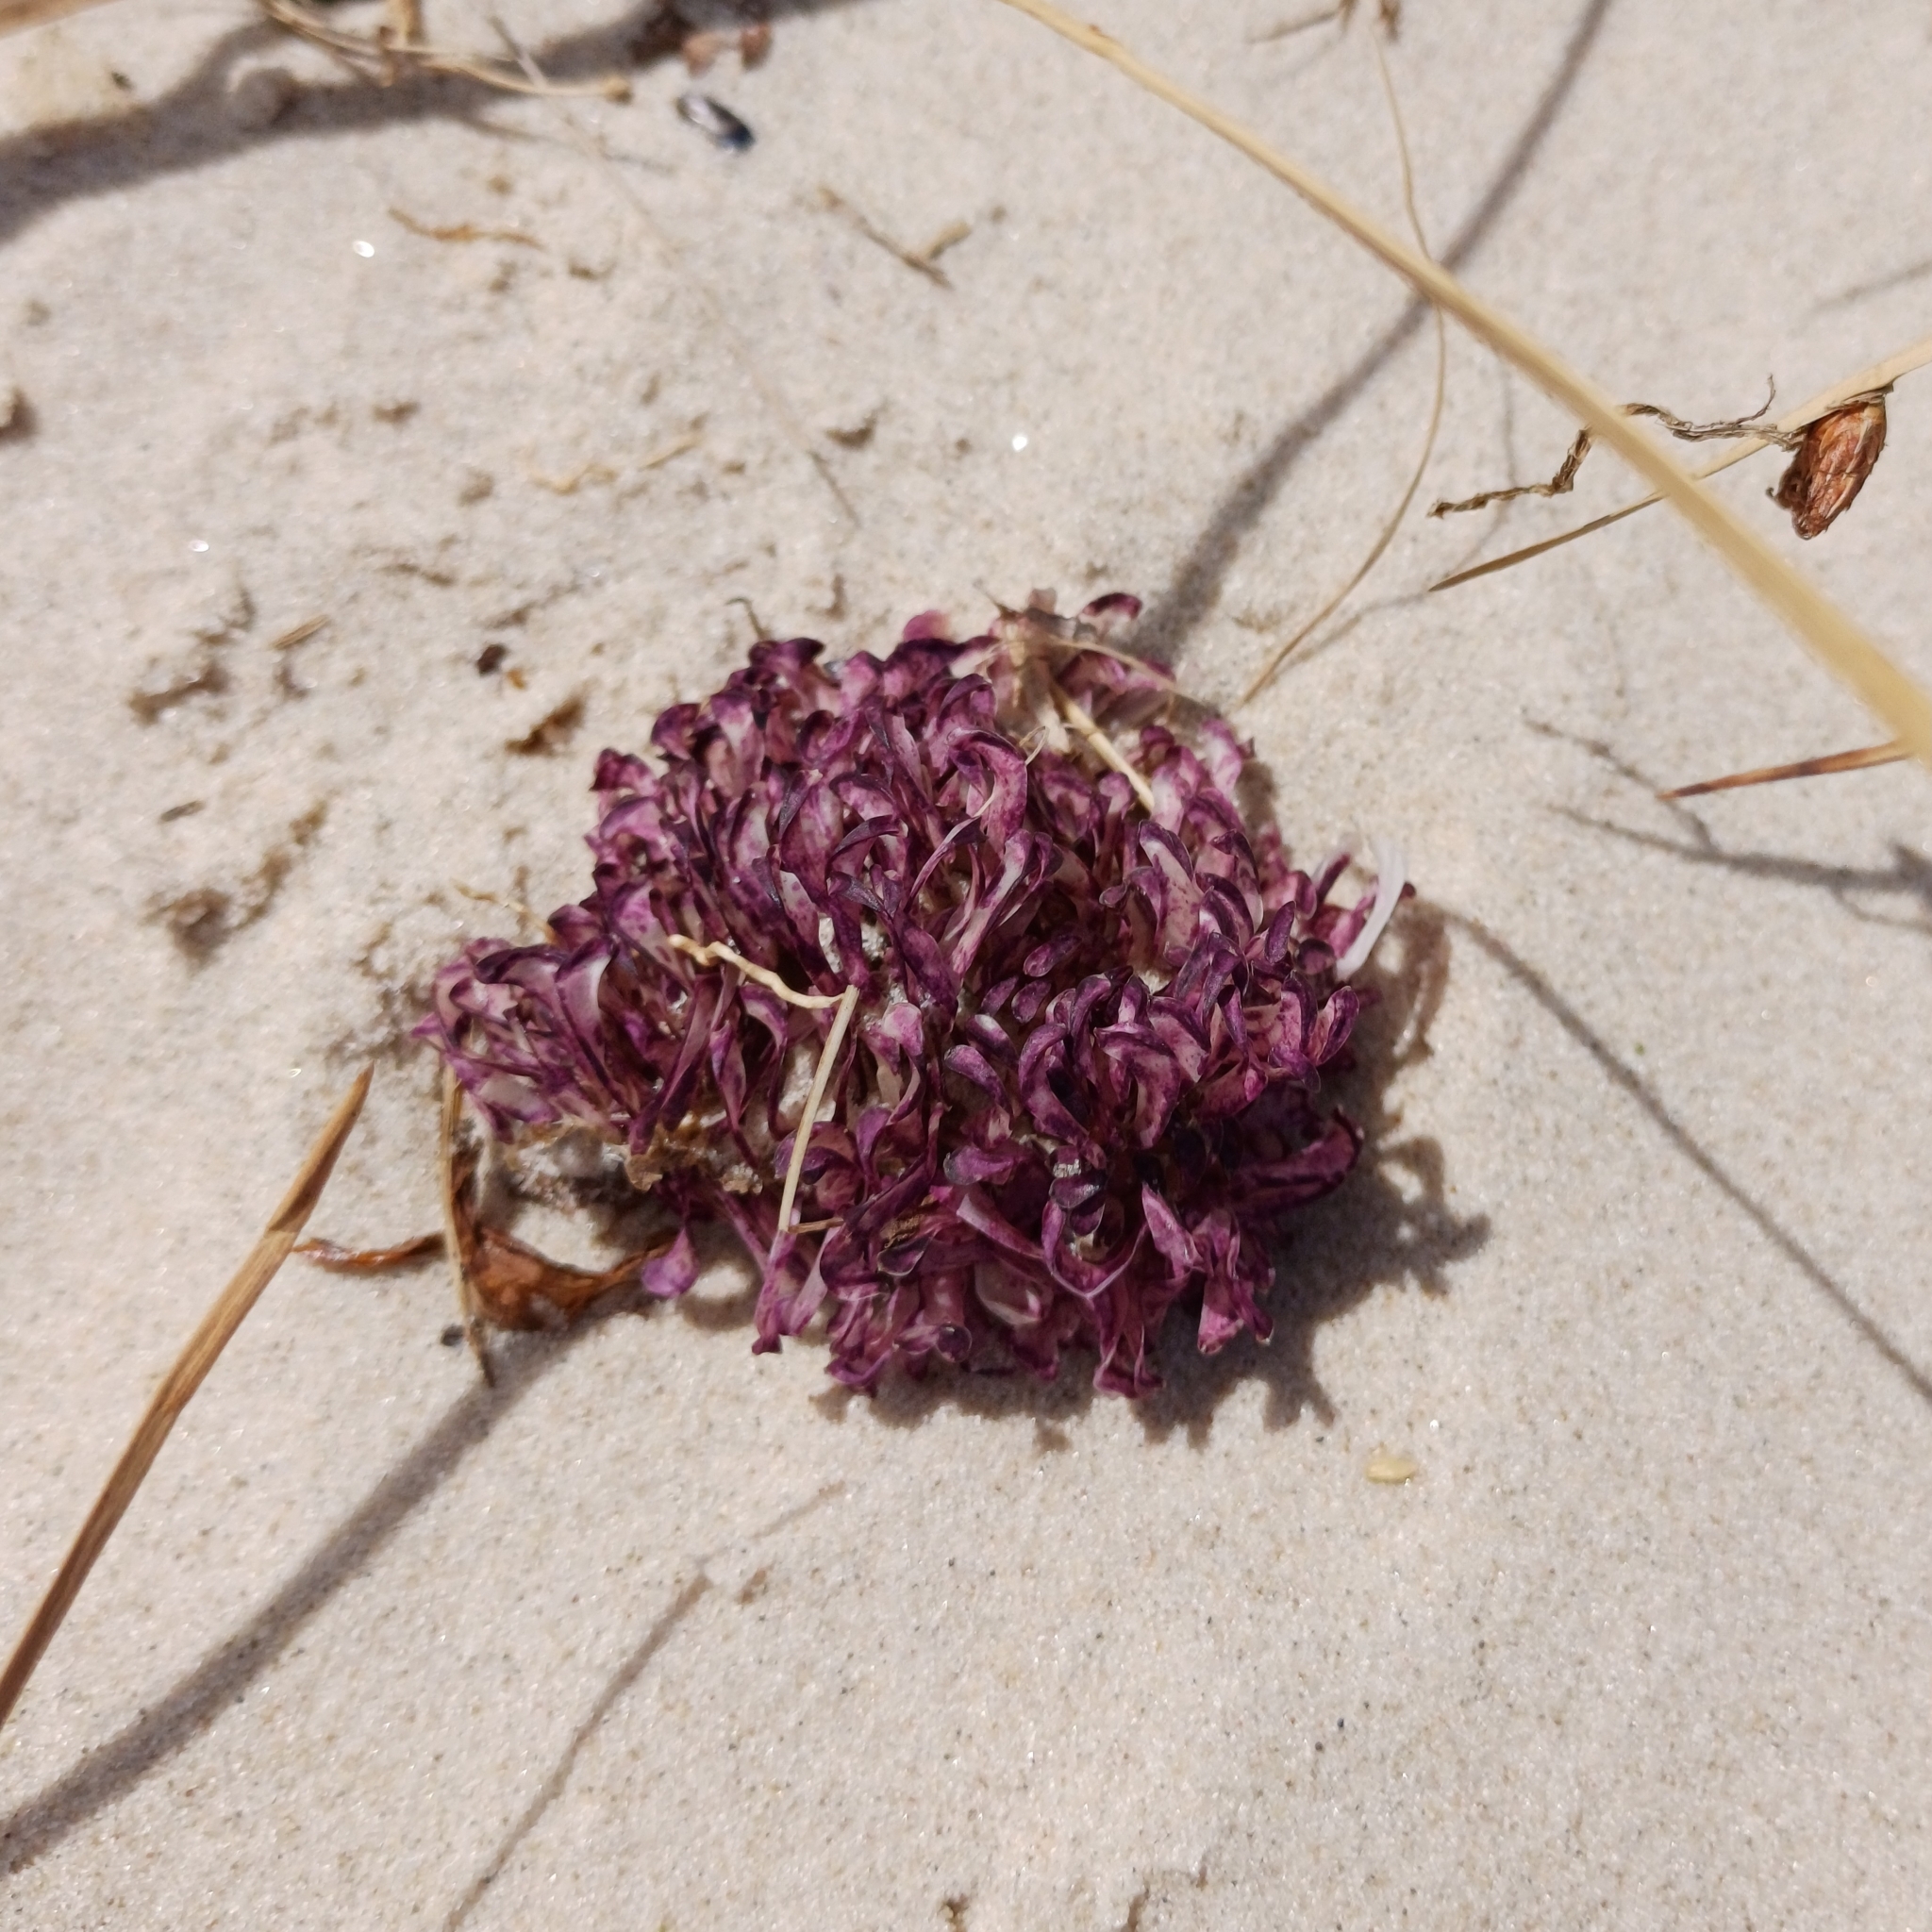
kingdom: Animalia
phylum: Mollusca
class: Gastropoda
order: Neogastropoda
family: Muricidae
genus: Rapana
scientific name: Rapana venosa
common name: Veined rapa whelk
